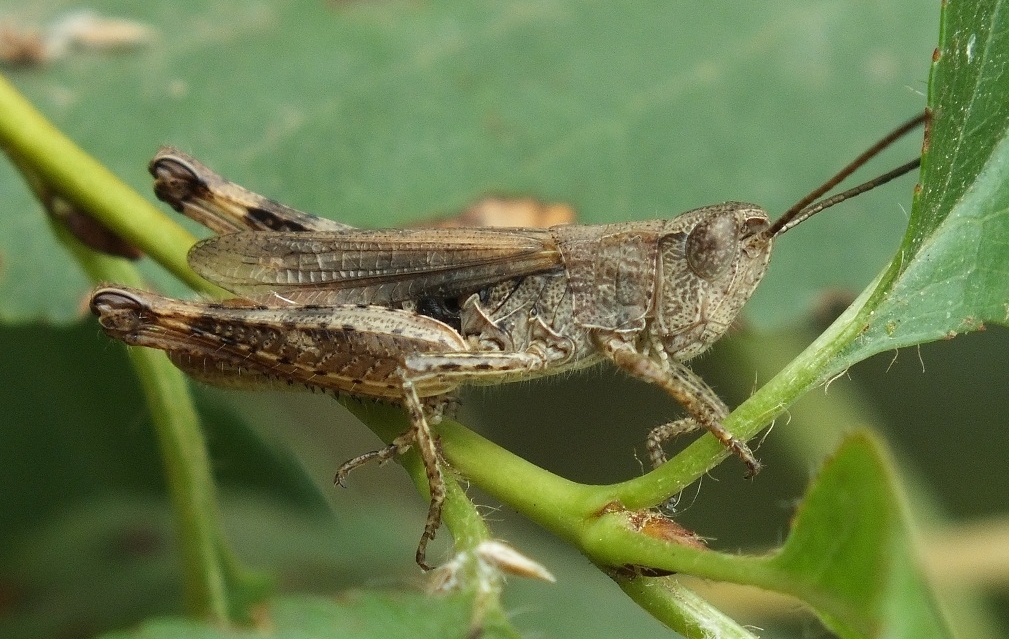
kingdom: Animalia
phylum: Arthropoda
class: Insecta
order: Orthoptera
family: Acrididae
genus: Chorthippus
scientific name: Chorthippus macrocerus
